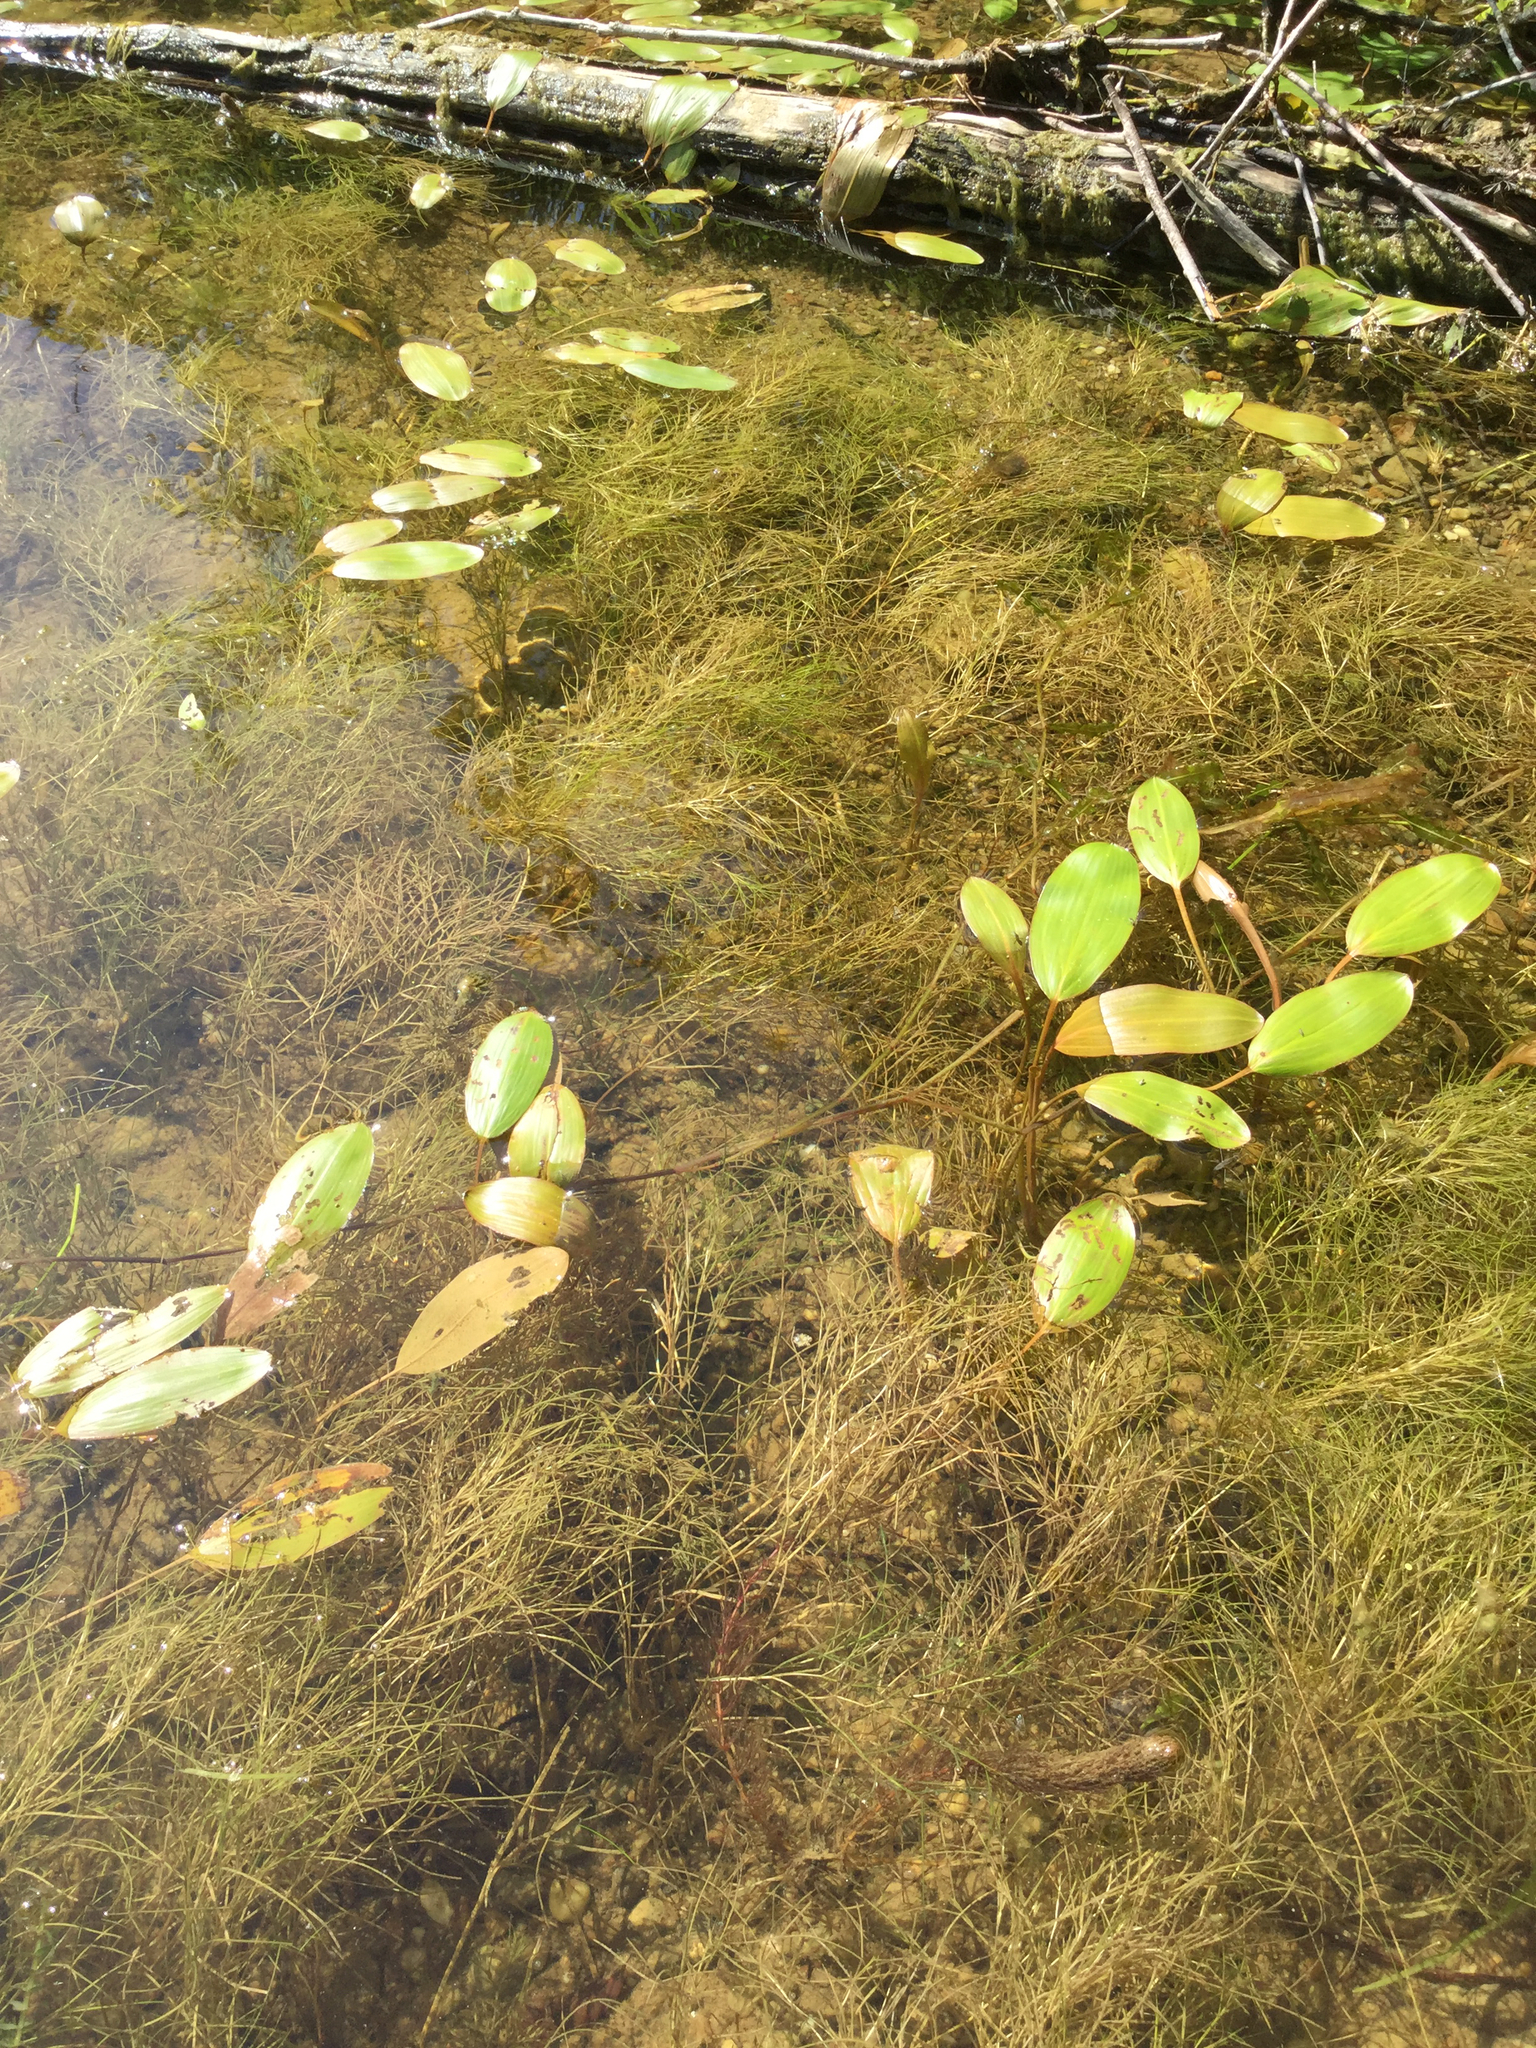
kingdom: Plantae
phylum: Tracheophyta
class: Liliopsida
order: Alismatales
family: Potamogetonaceae
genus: Stuckenia
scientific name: Stuckenia pectinata
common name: Sago pondweed
